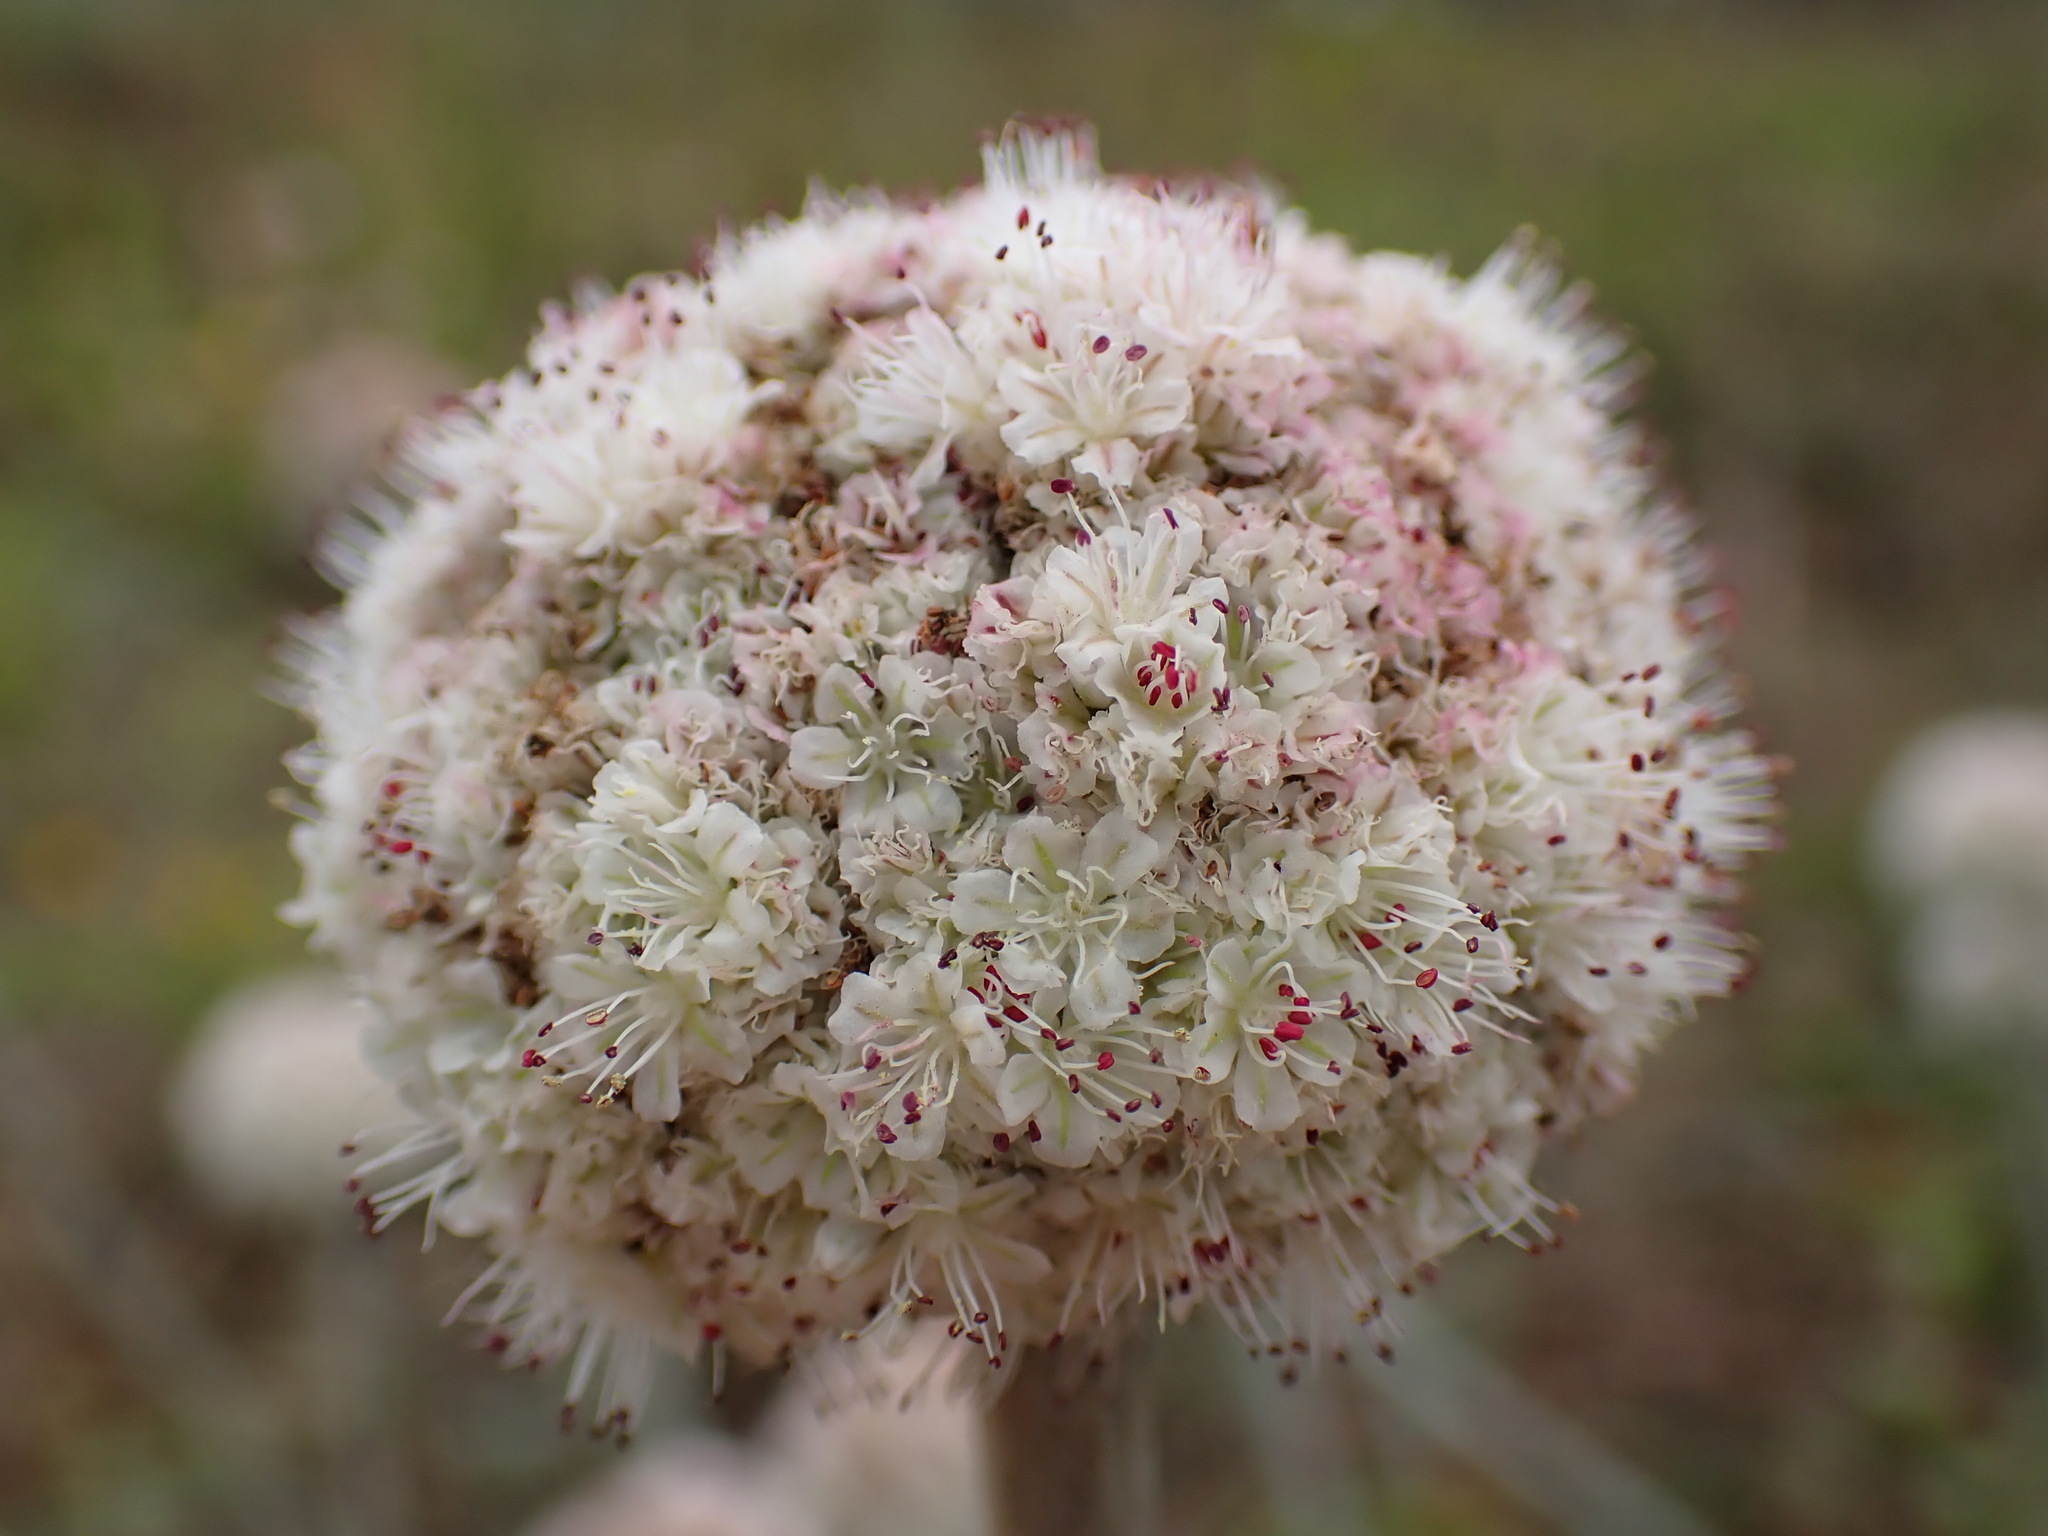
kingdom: Plantae
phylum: Tracheophyta
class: Magnoliopsida
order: Caryophyllales
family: Polygonaceae
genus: Eriogonum
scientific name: Eriogonum latifolium
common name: Seaside wild buckwheat
